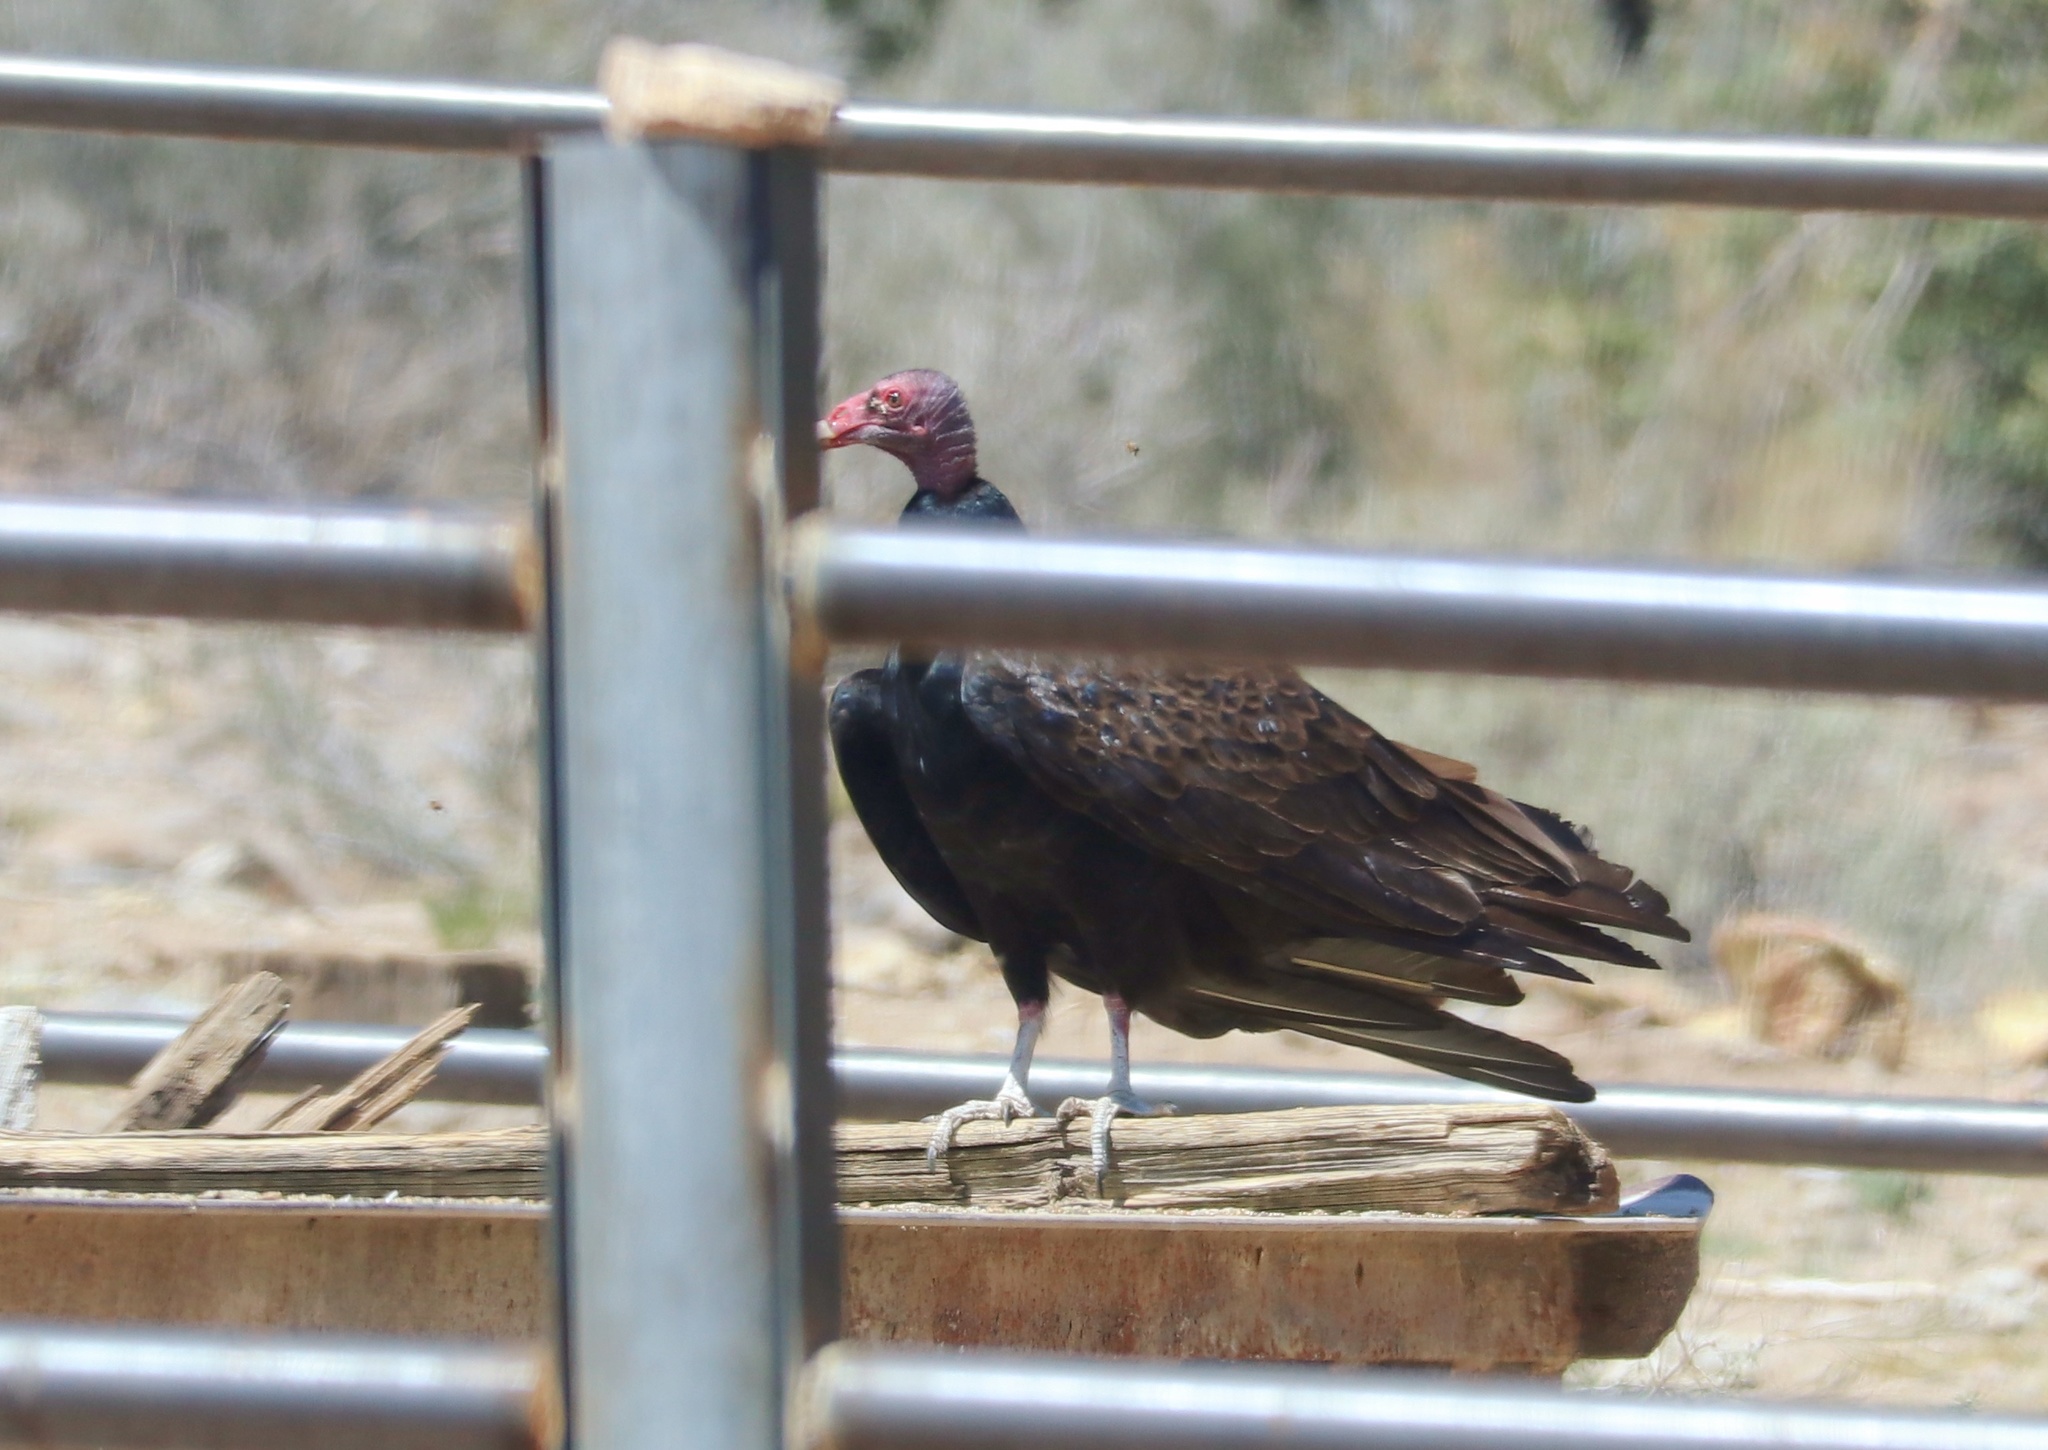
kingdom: Animalia
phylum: Chordata
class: Aves
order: Accipitriformes
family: Cathartidae
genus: Cathartes
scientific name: Cathartes aura
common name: Turkey vulture
